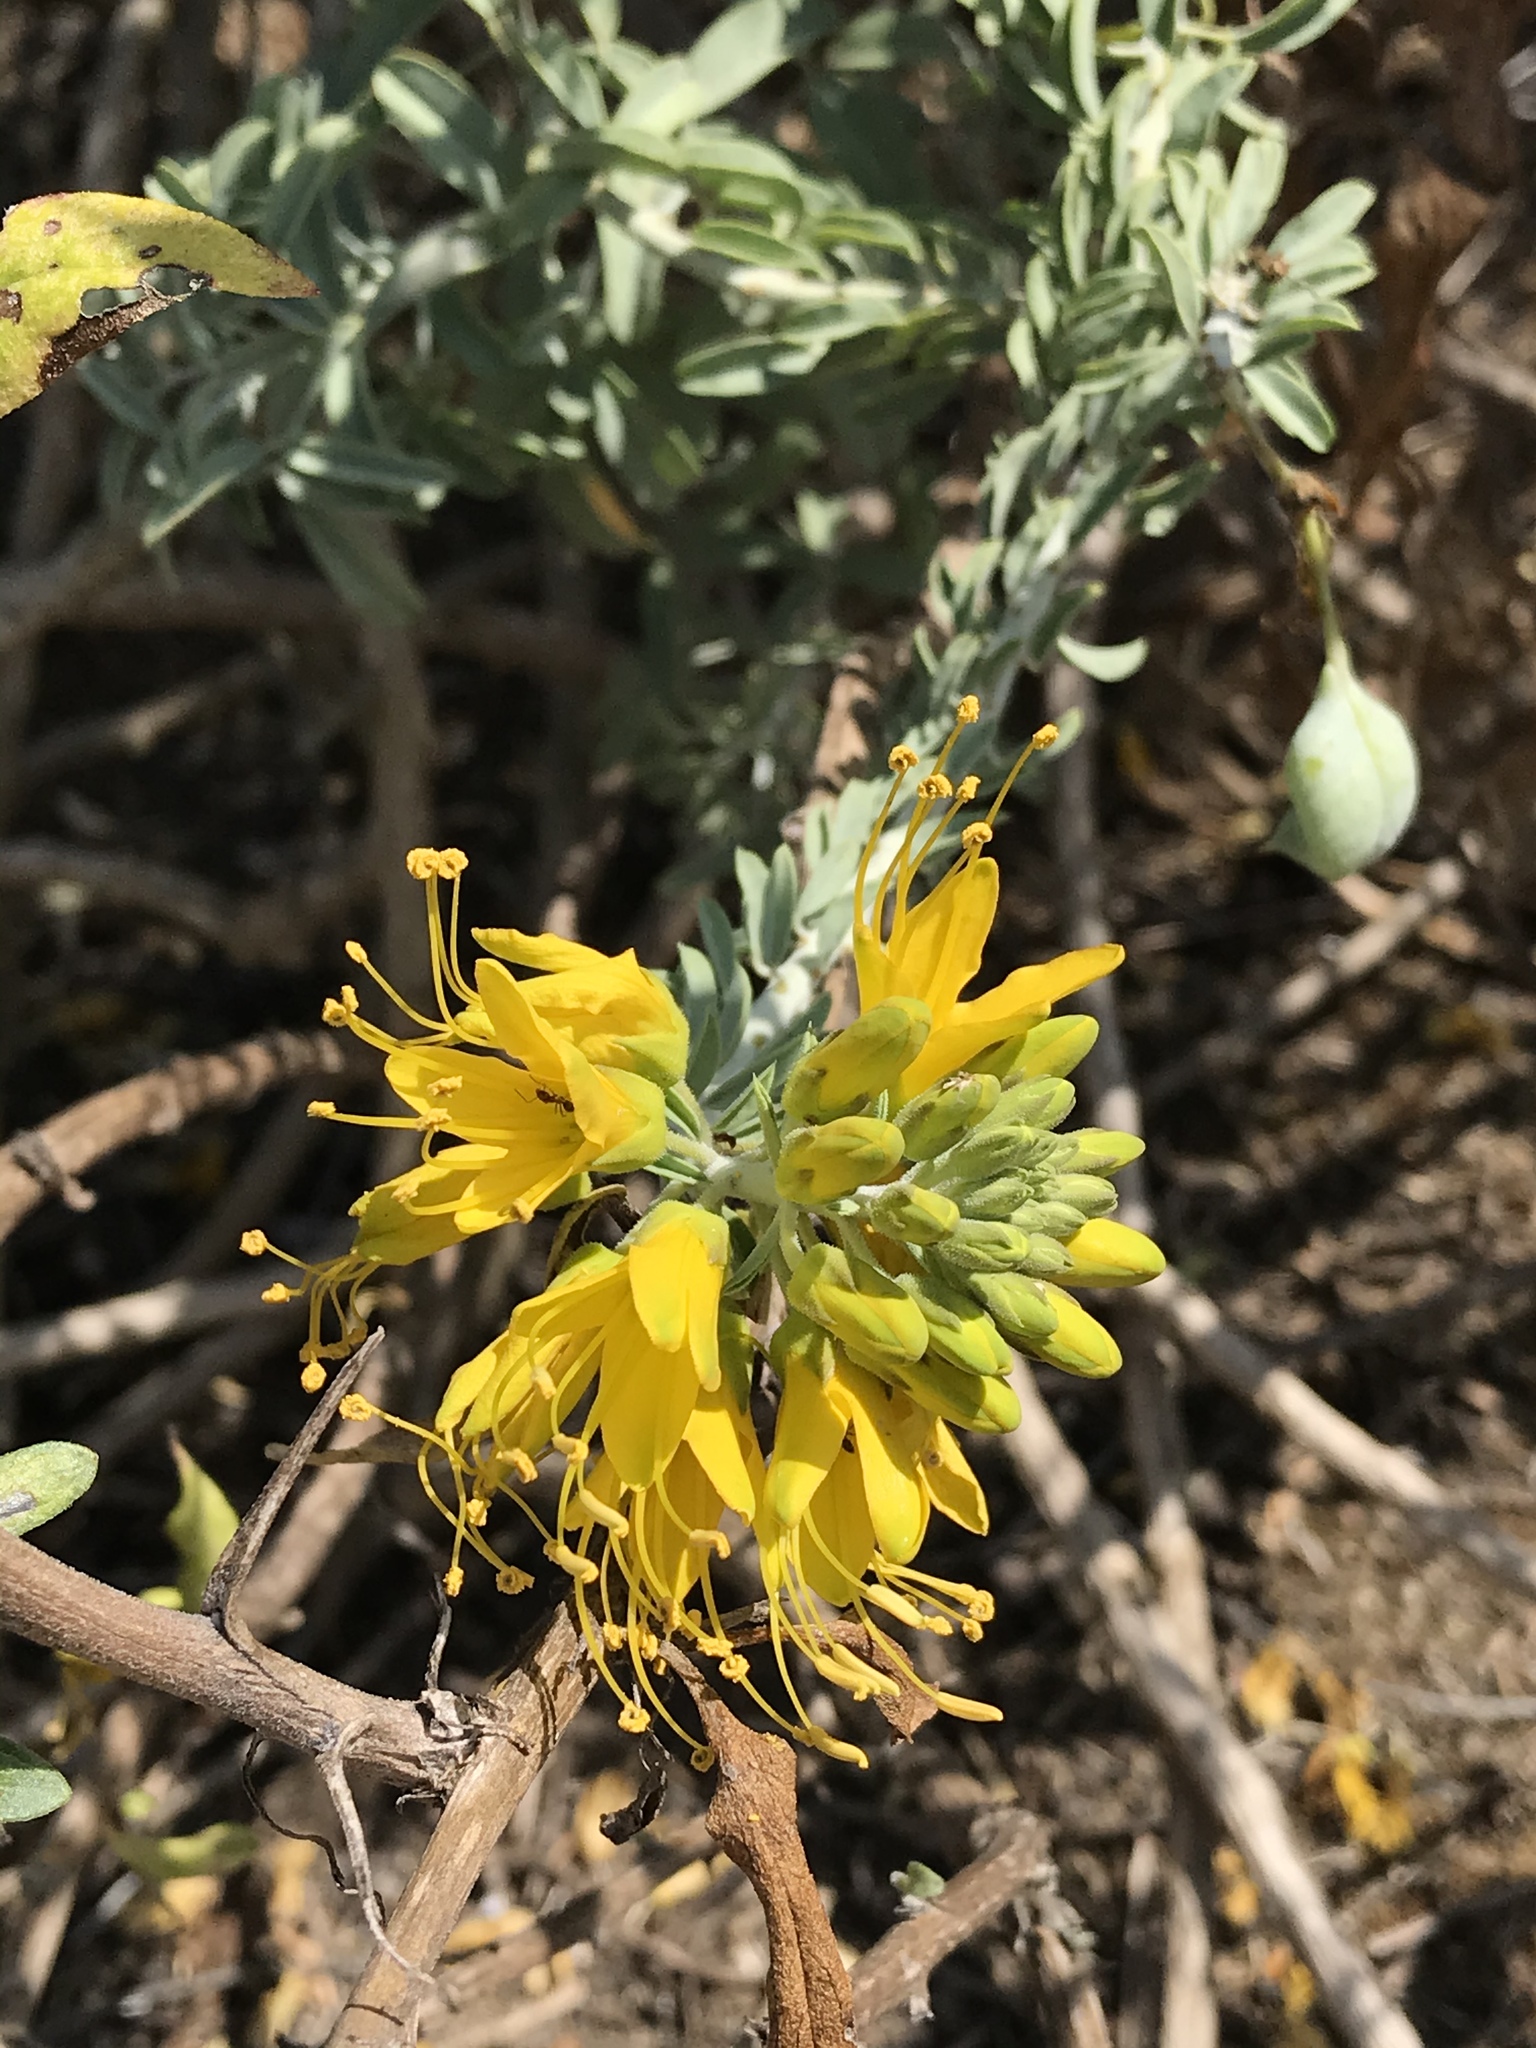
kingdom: Plantae
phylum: Tracheophyta
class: Magnoliopsida
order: Brassicales
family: Cleomaceae
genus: Cleomella
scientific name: Cleomella arborea
